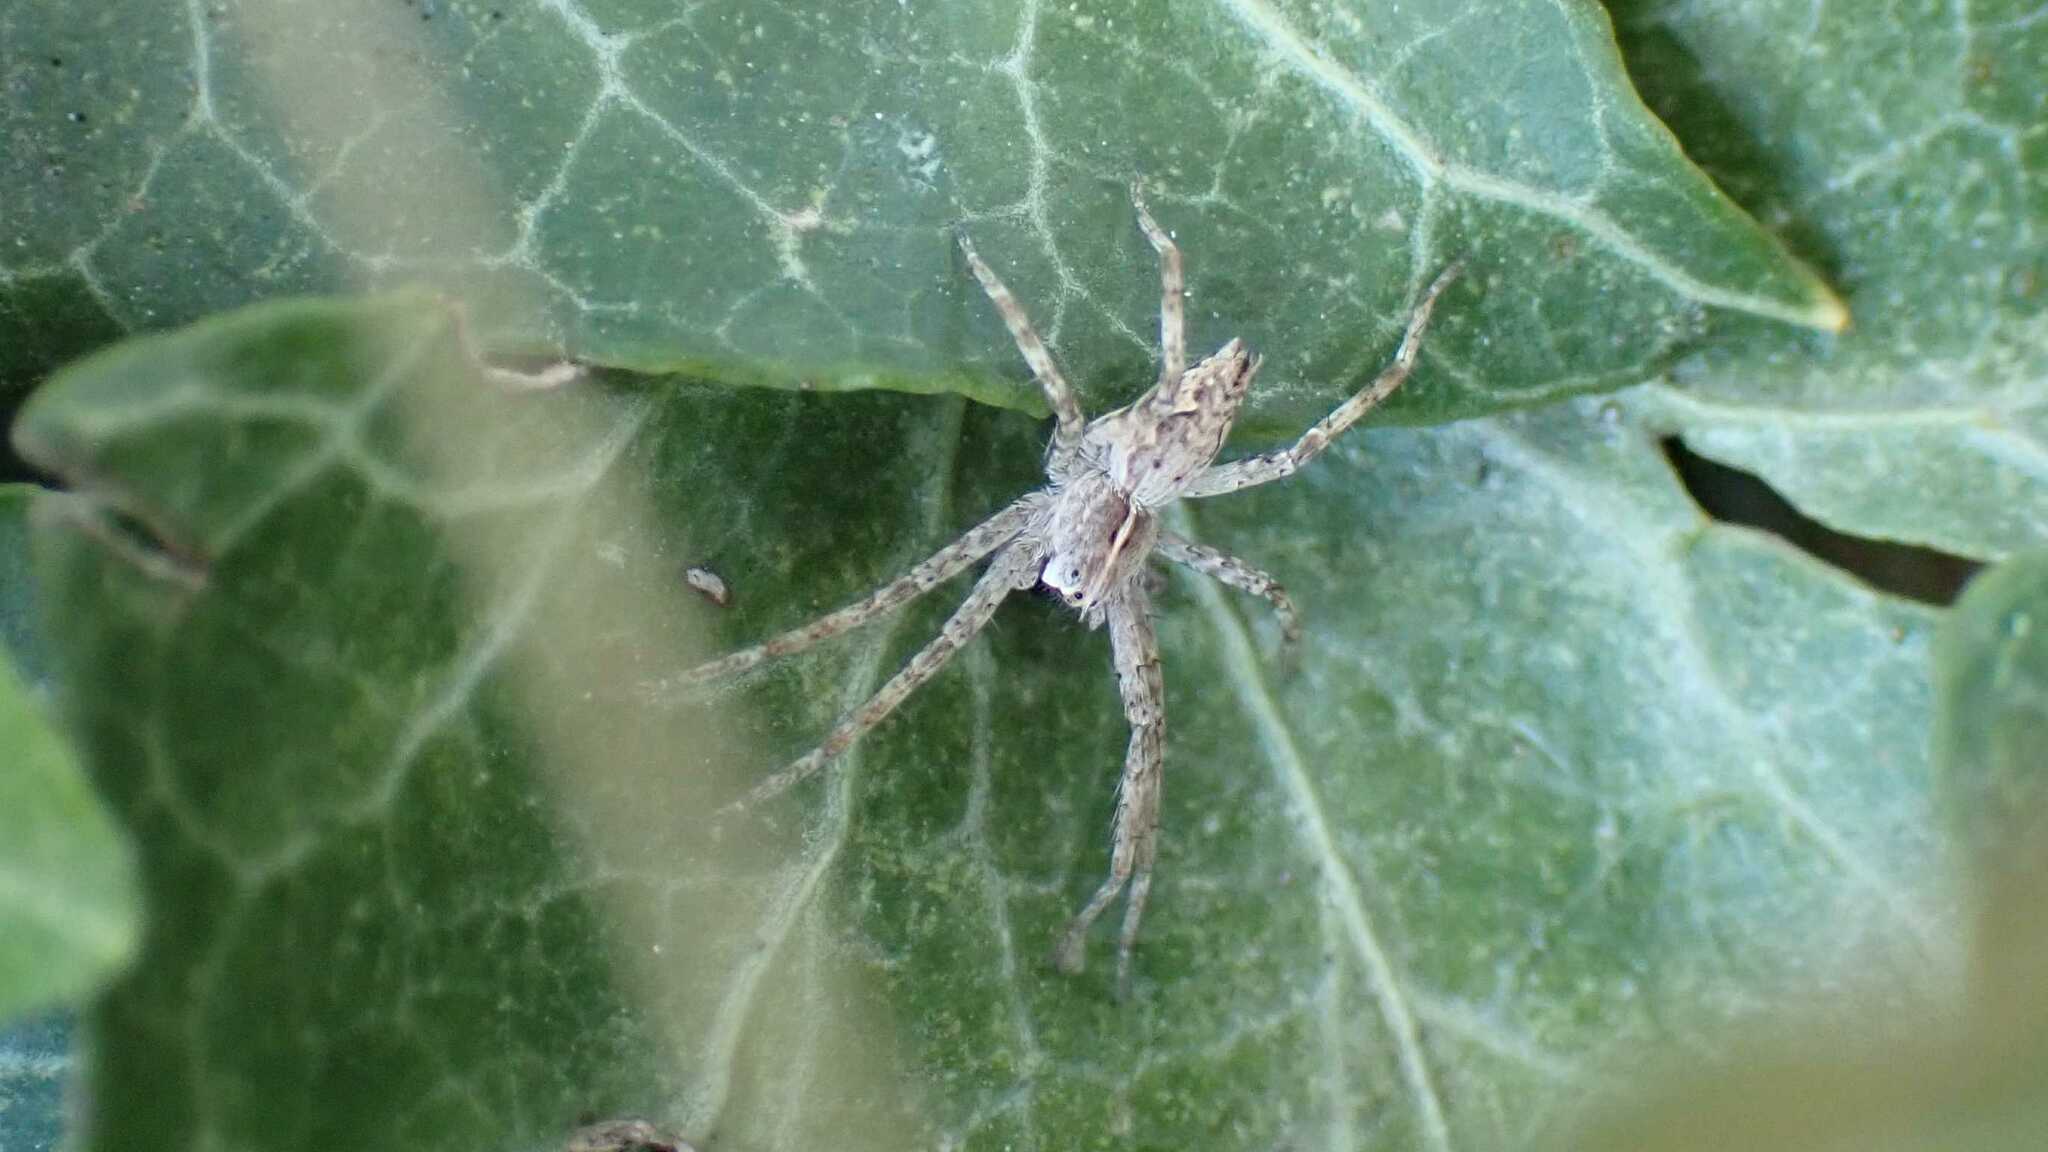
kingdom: Animalia
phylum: Arthropoda
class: Arachnida
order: Araneae
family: Pisauridae
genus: Pisaura
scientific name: Pisaura mirabilis
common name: Tent spider
